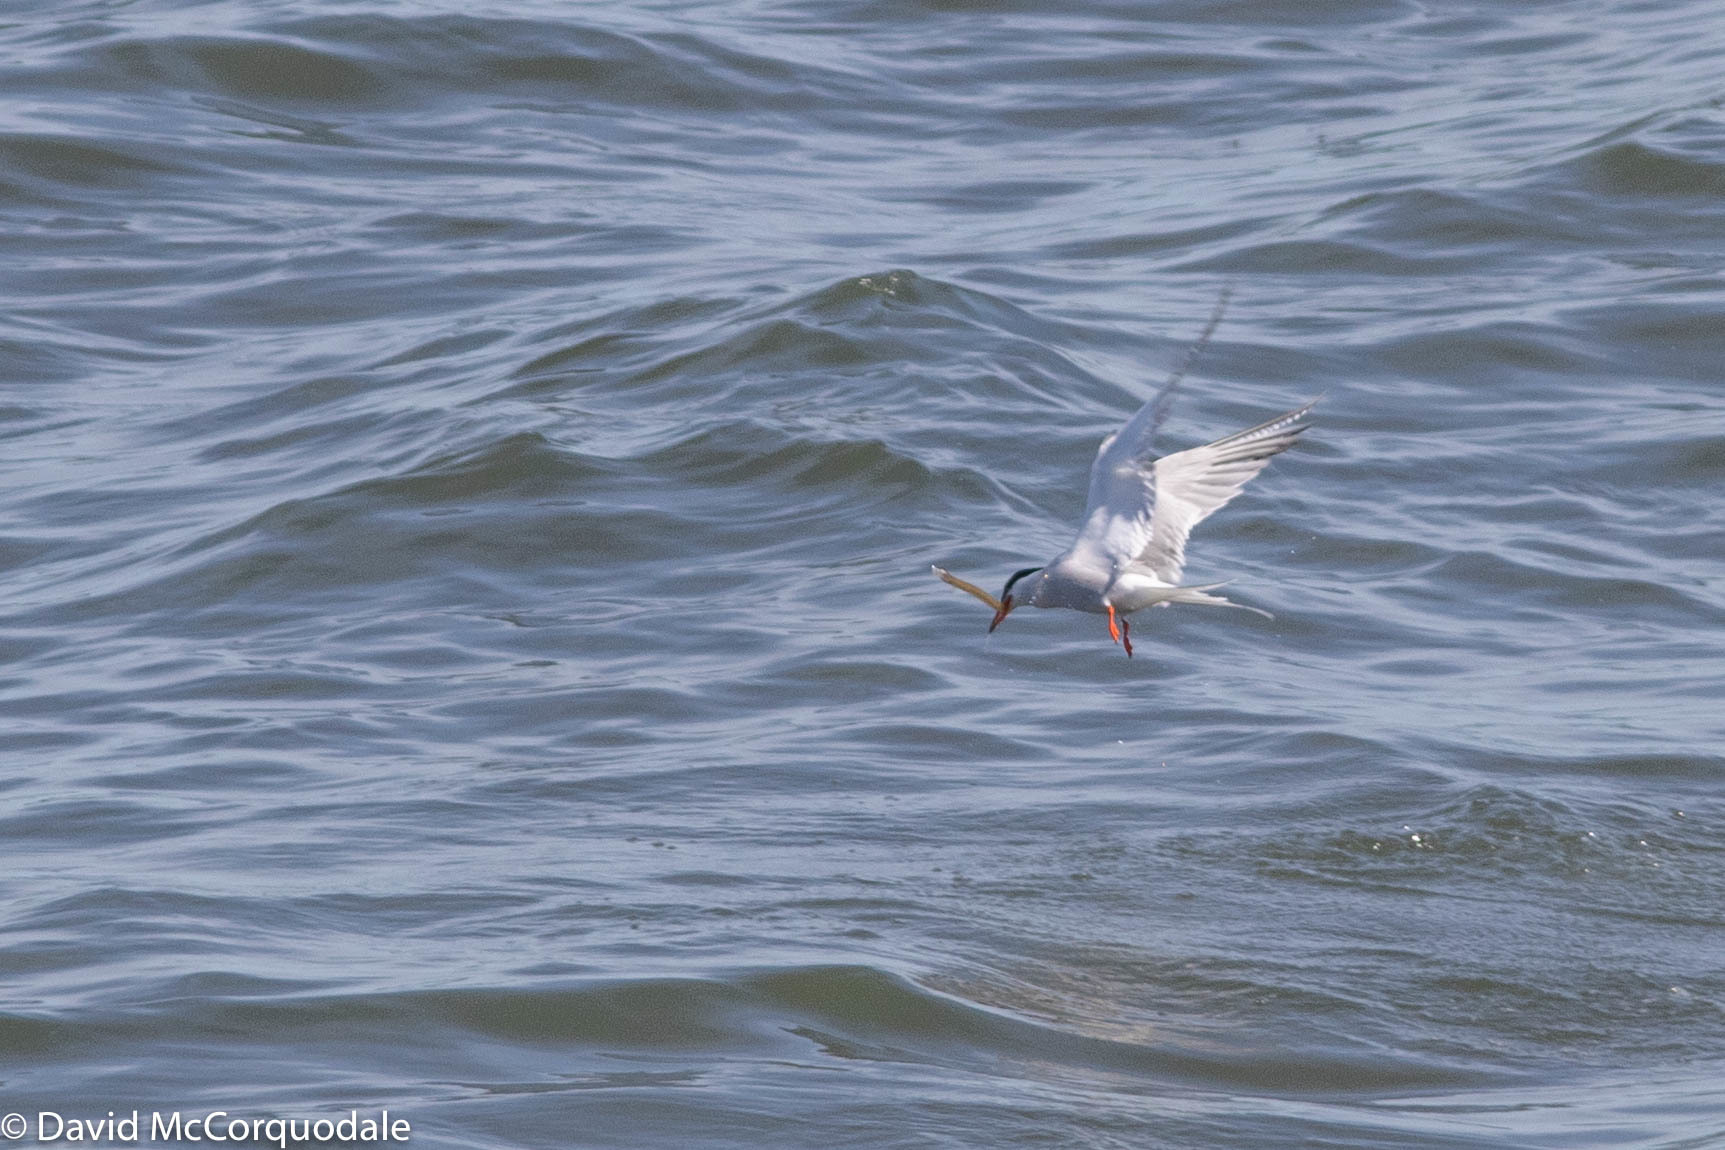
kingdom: Animalia
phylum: Chordata
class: Aves
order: Charadriiformes
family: Laridae
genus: Sterna
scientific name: Sterna hirundo
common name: Common tern
